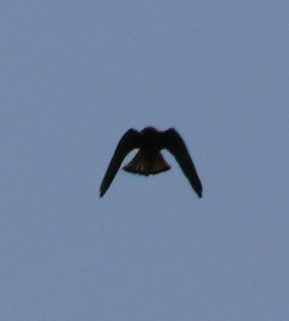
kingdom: Animalia
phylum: Chordata
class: Aves
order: Falconiformes
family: Falconidae
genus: Falco
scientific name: Falco tinnunculus
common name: Common kestrel
